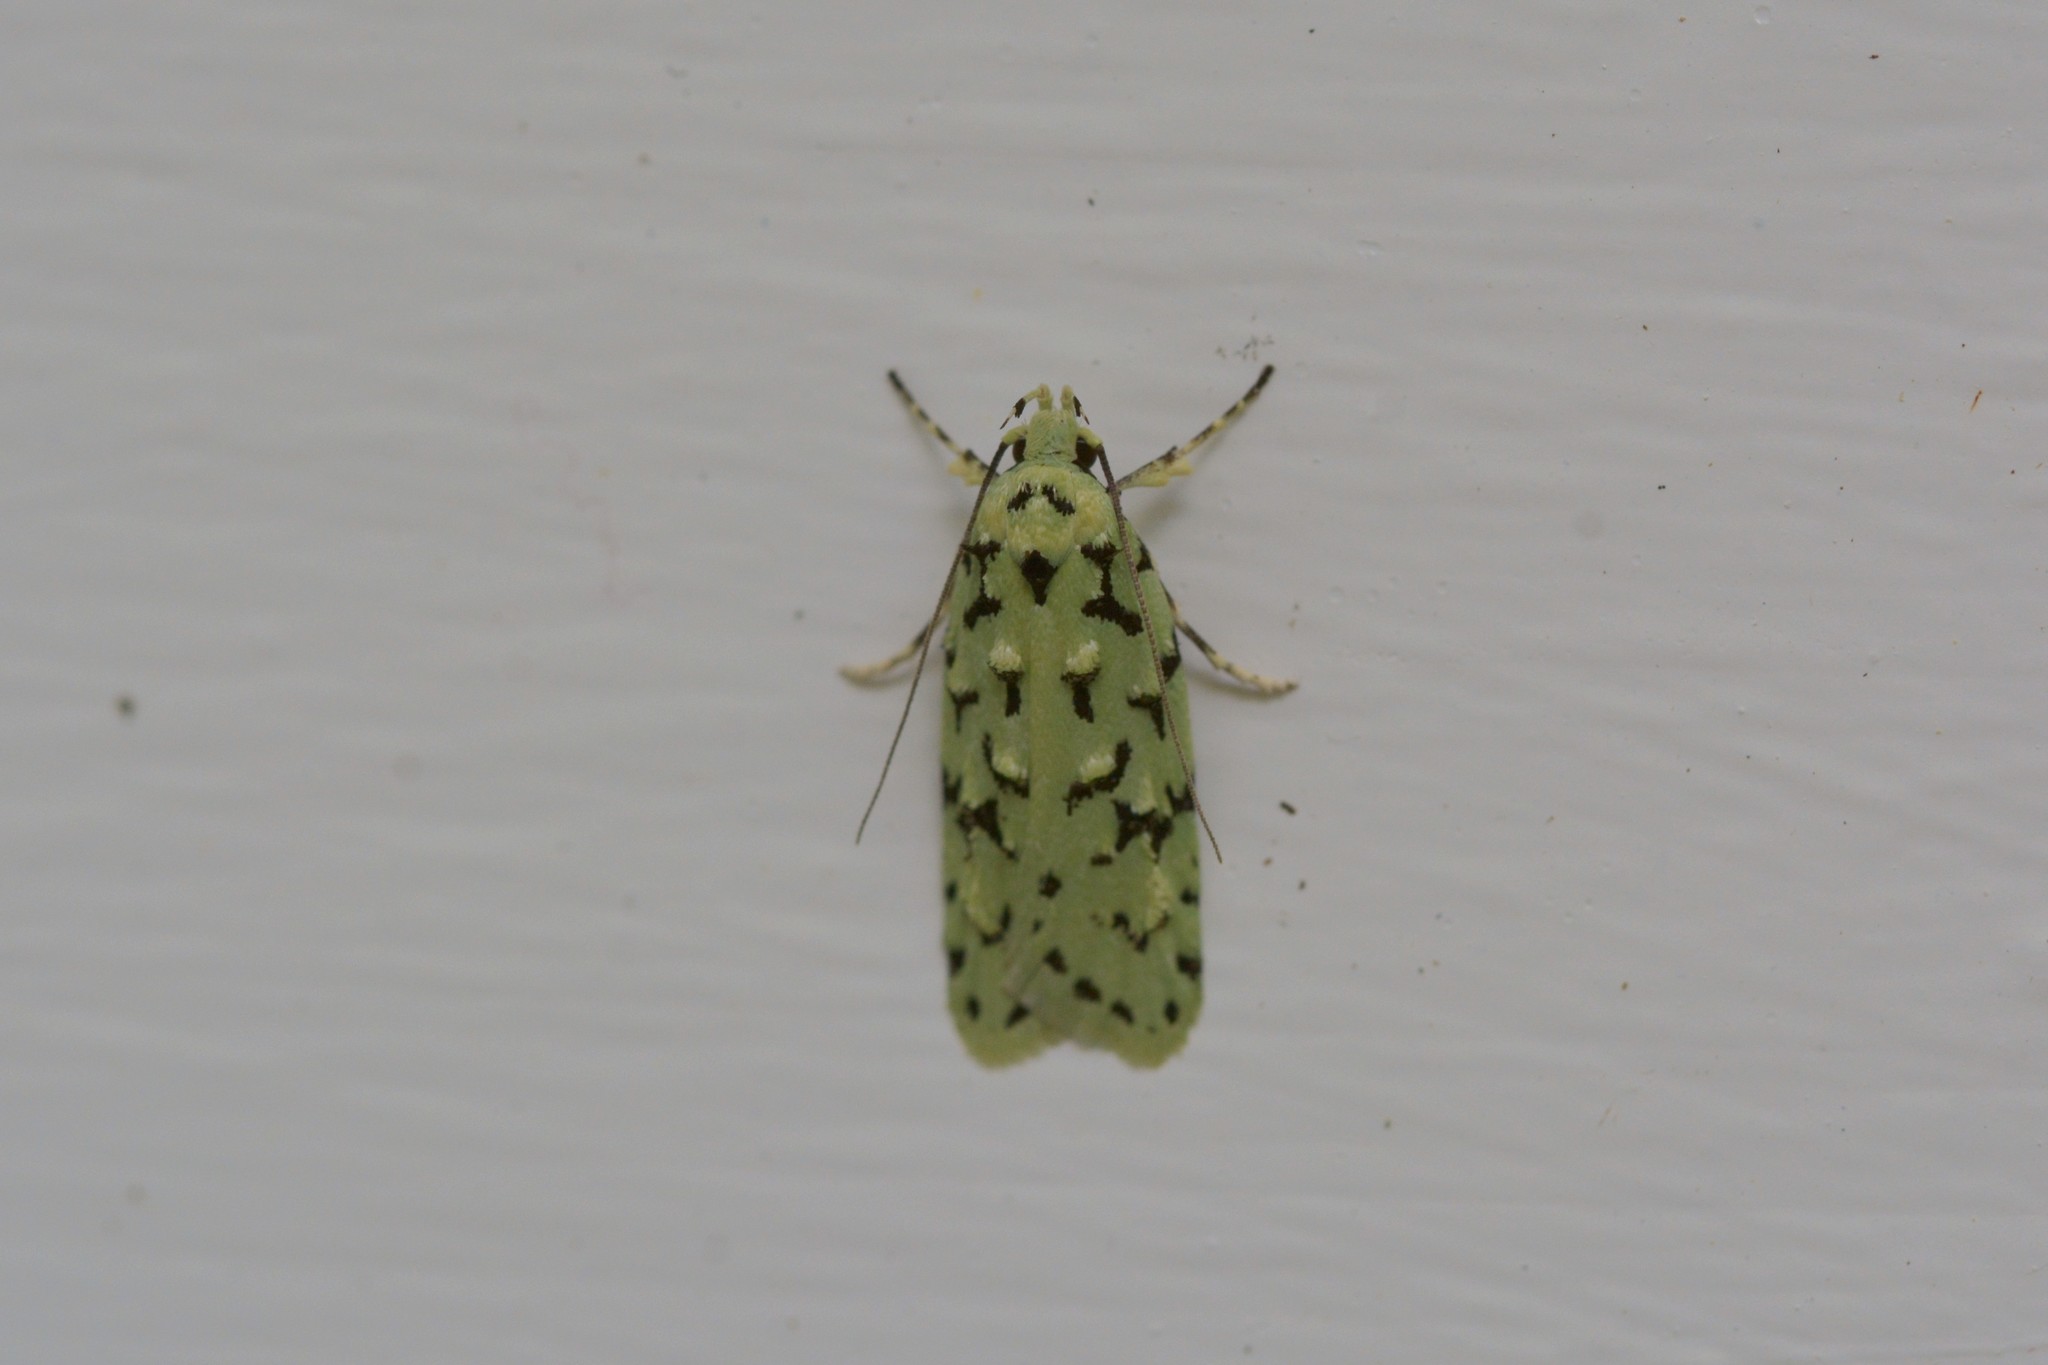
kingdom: Animalia
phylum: Arthropoda
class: Insecta
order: Lepidoptera
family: Oecophoridae
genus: Izatha
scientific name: Izatha peroneanella
